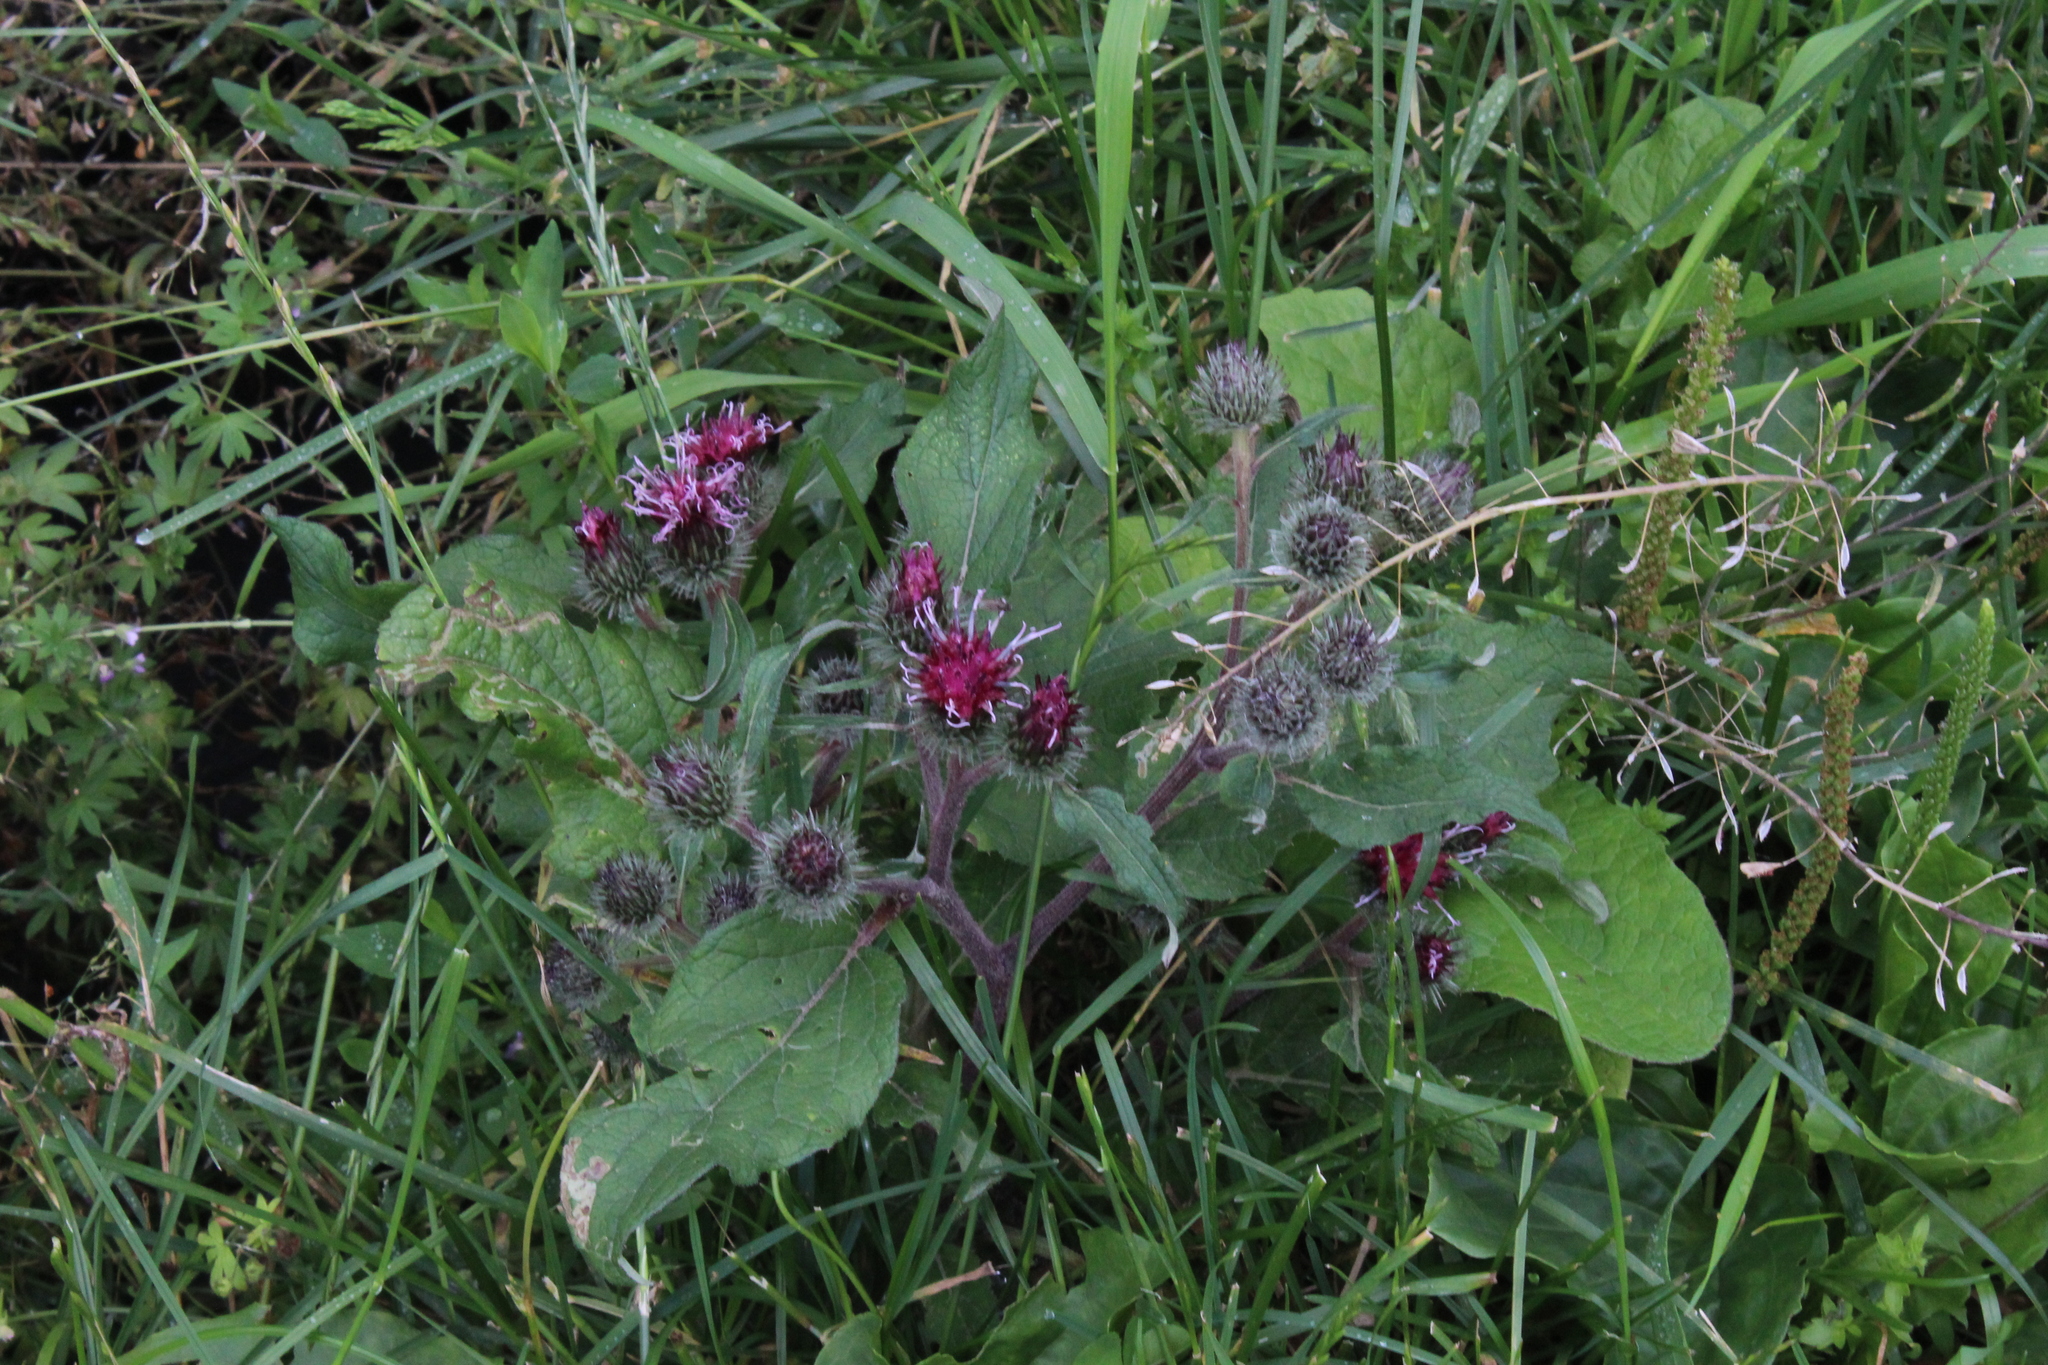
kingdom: Plantae
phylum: Tracheophyta
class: Magnoliopsida
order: Asterales
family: Asteraceae
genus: Arctium
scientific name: Arctium tomentosum
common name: Woolly burdock
